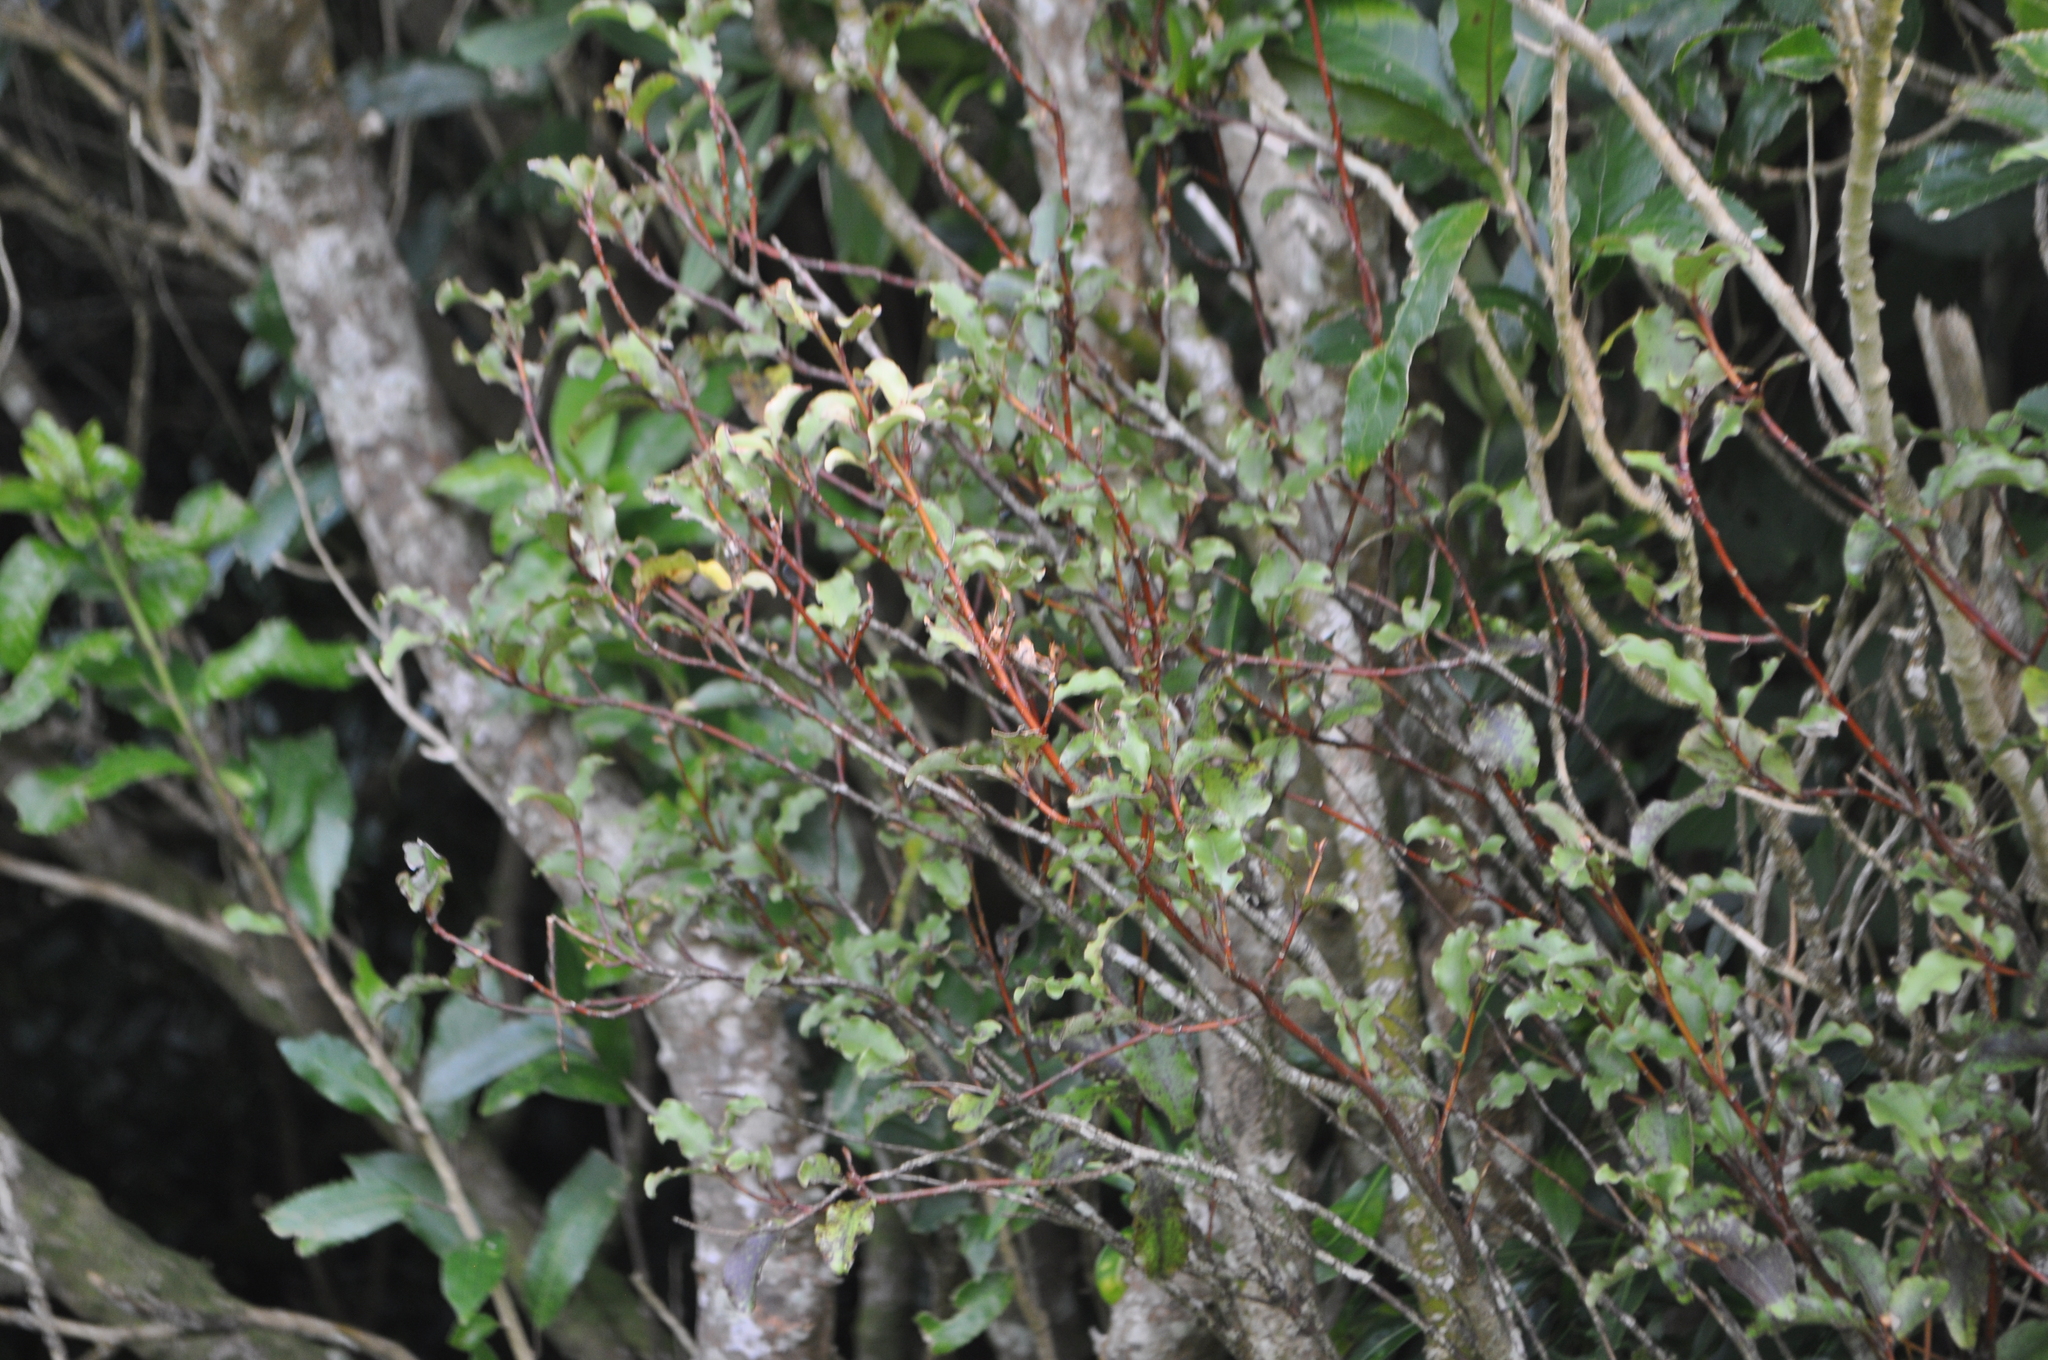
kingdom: Plantae
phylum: Tracheophyta
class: Magnoliopsida
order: Ericales
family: Primulaceae
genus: Myrsine
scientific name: Myrsine australis
